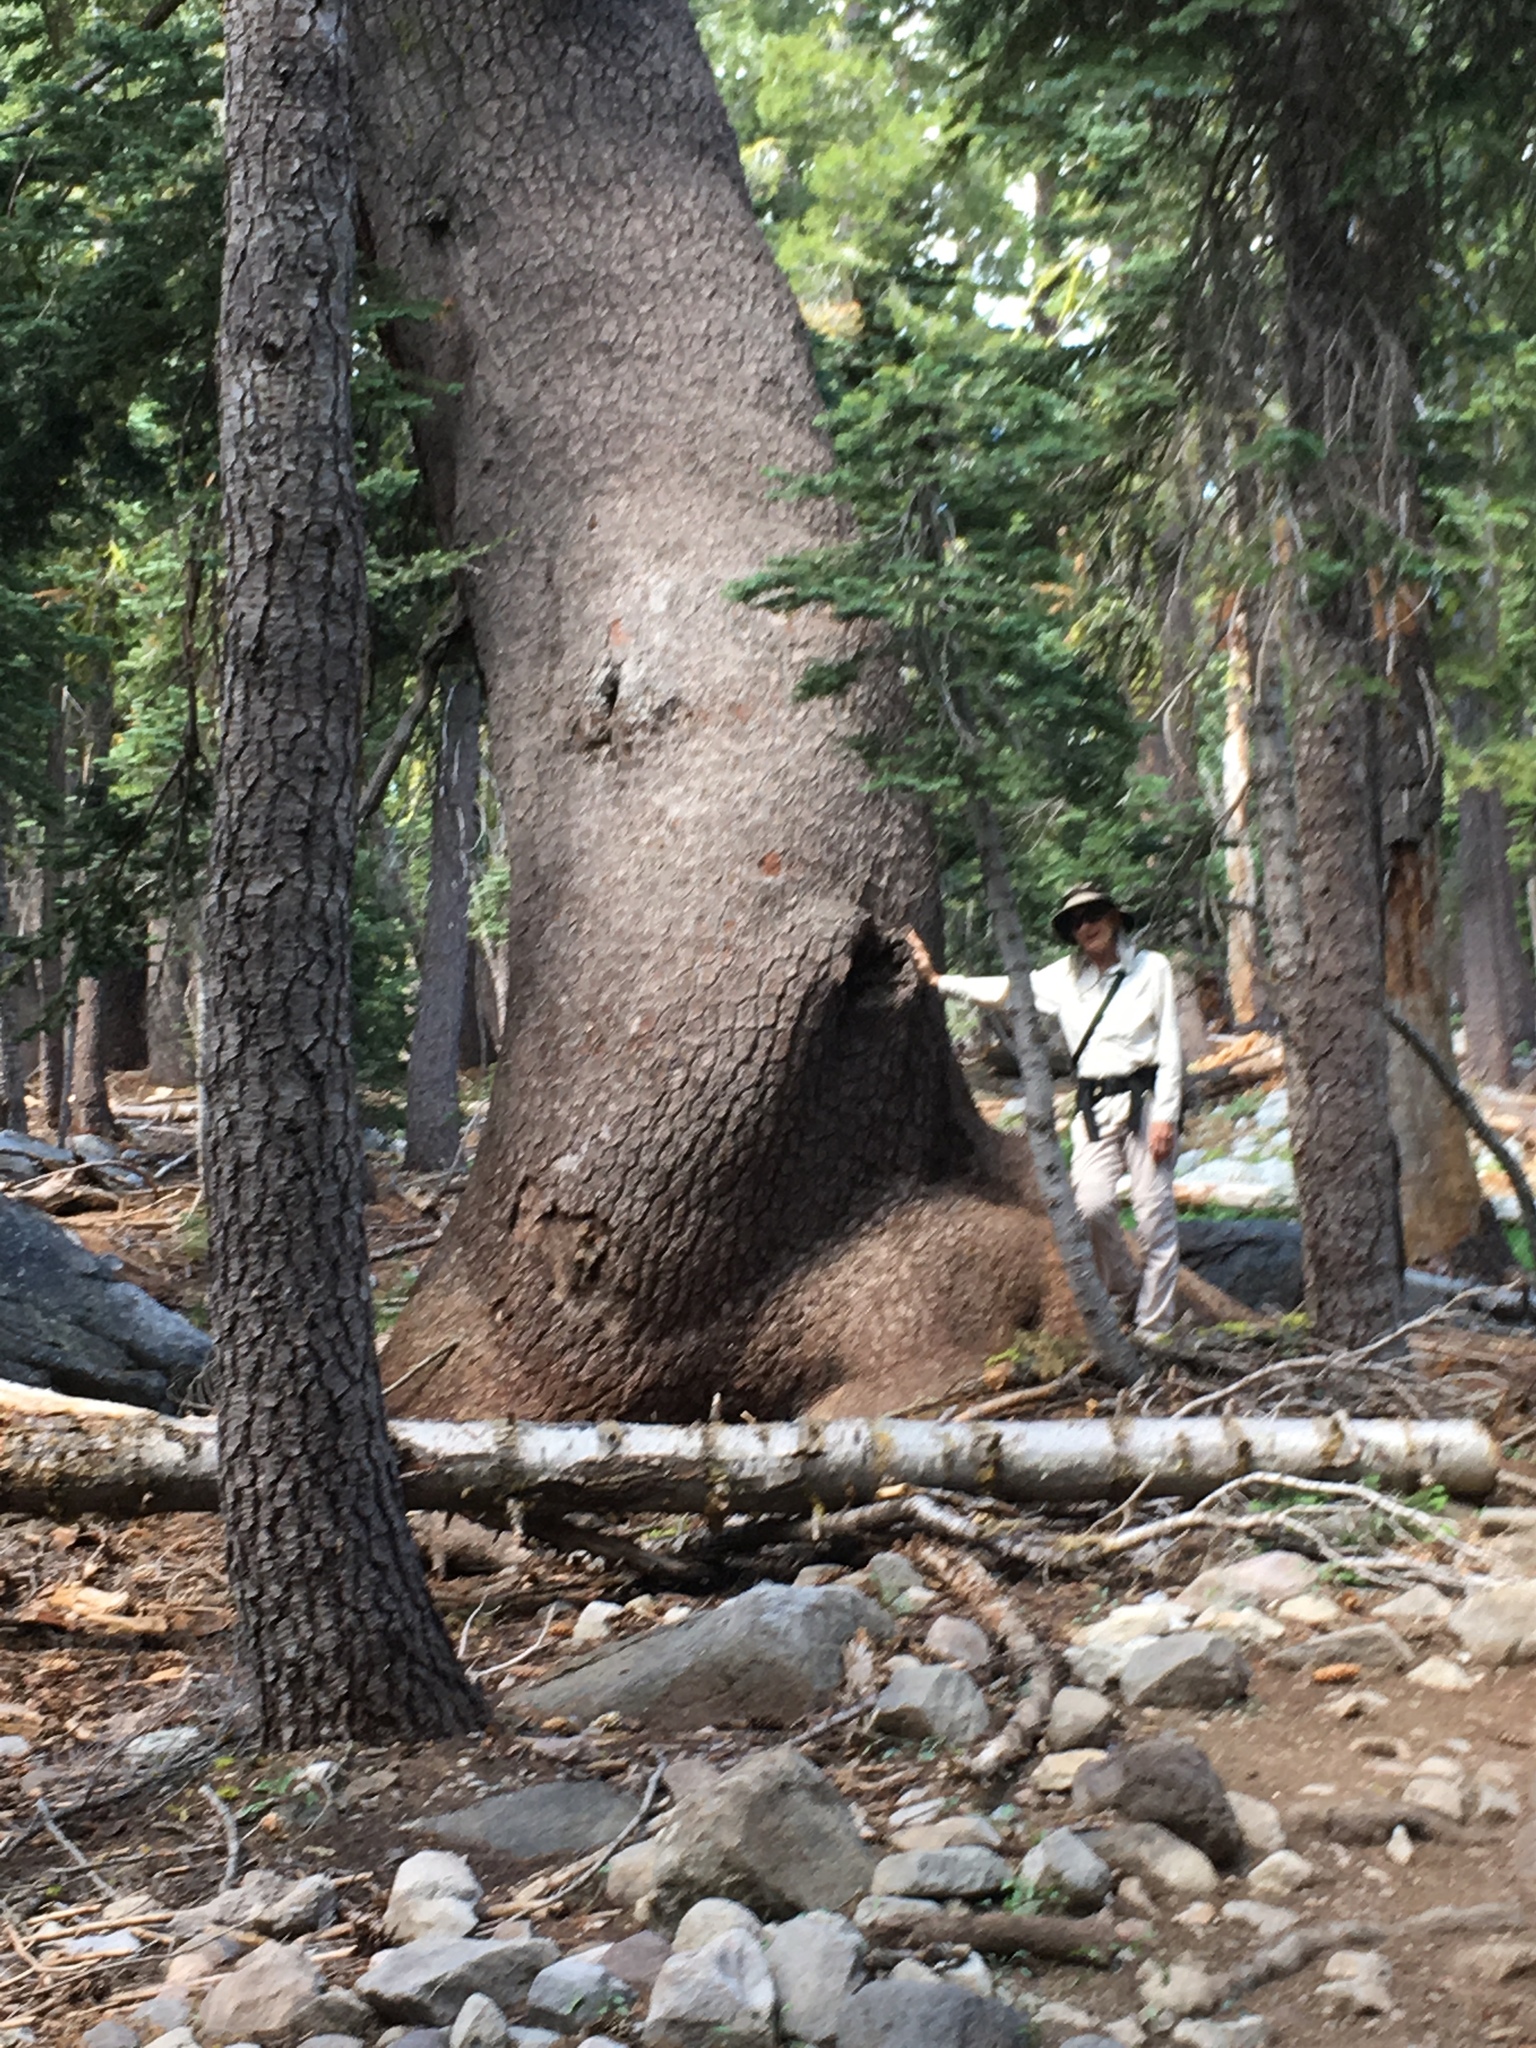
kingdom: Plantae
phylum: Tracheophyta
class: Pinopsida
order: Pinales
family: Pinaceae
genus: Pinus
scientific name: Pinus monticola
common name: Western white pine
